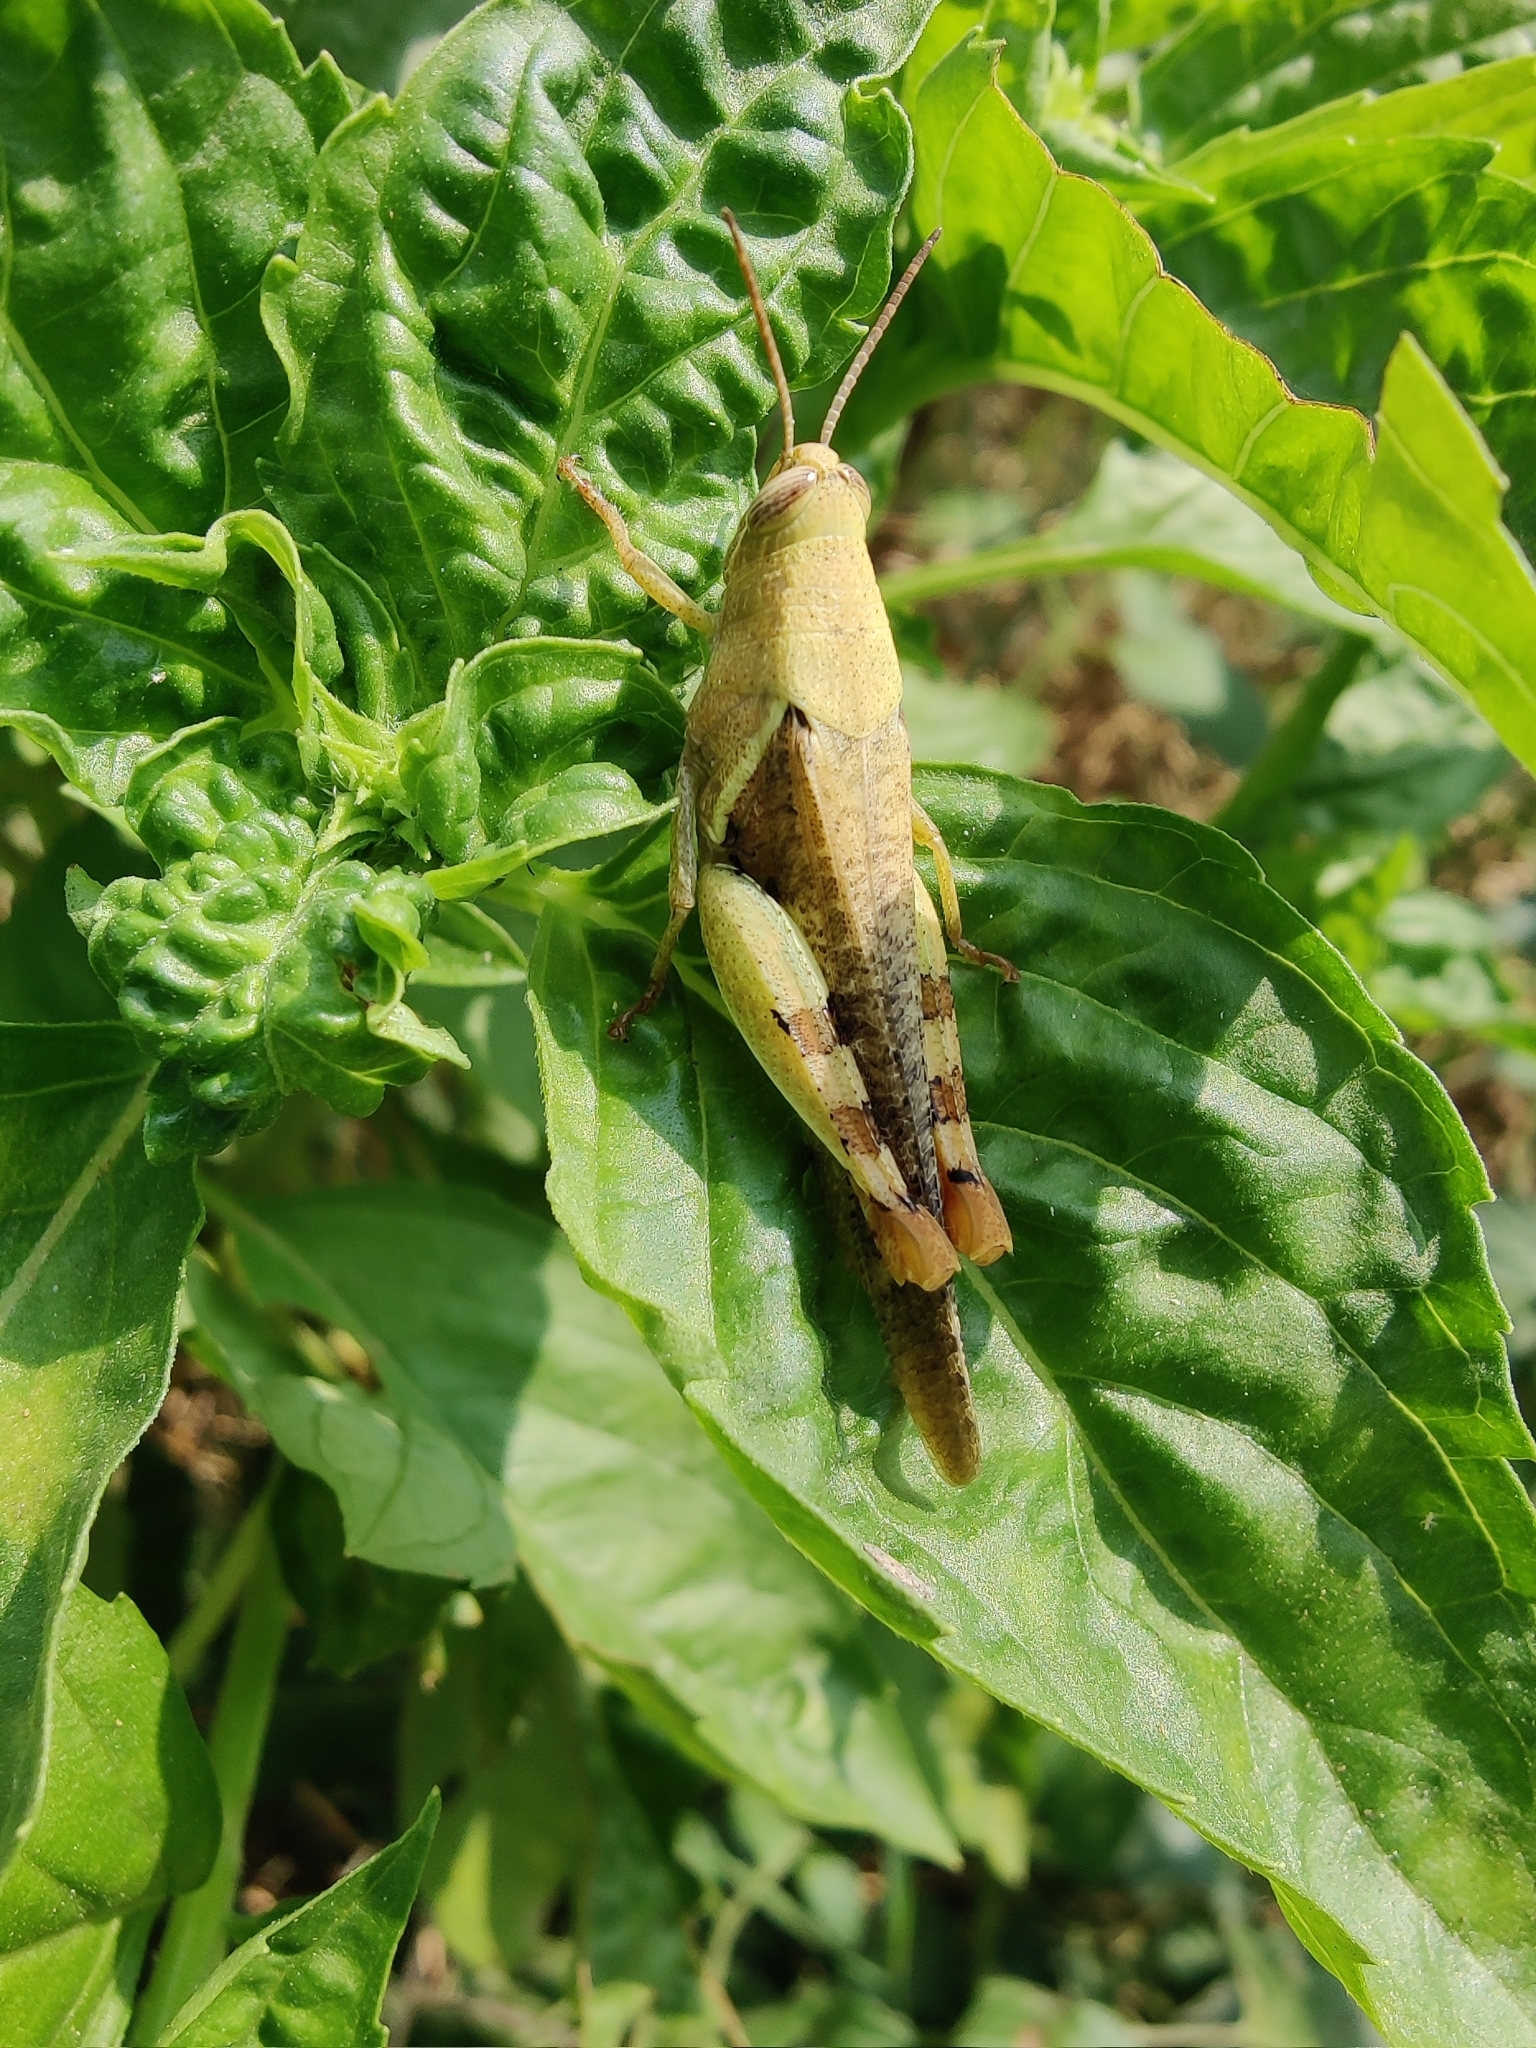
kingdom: Animalia
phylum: Arthropoda
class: Insecta
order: Orthoptera
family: Acrididae
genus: Diabolocatantops
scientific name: Diabolocatantops innotabilis
